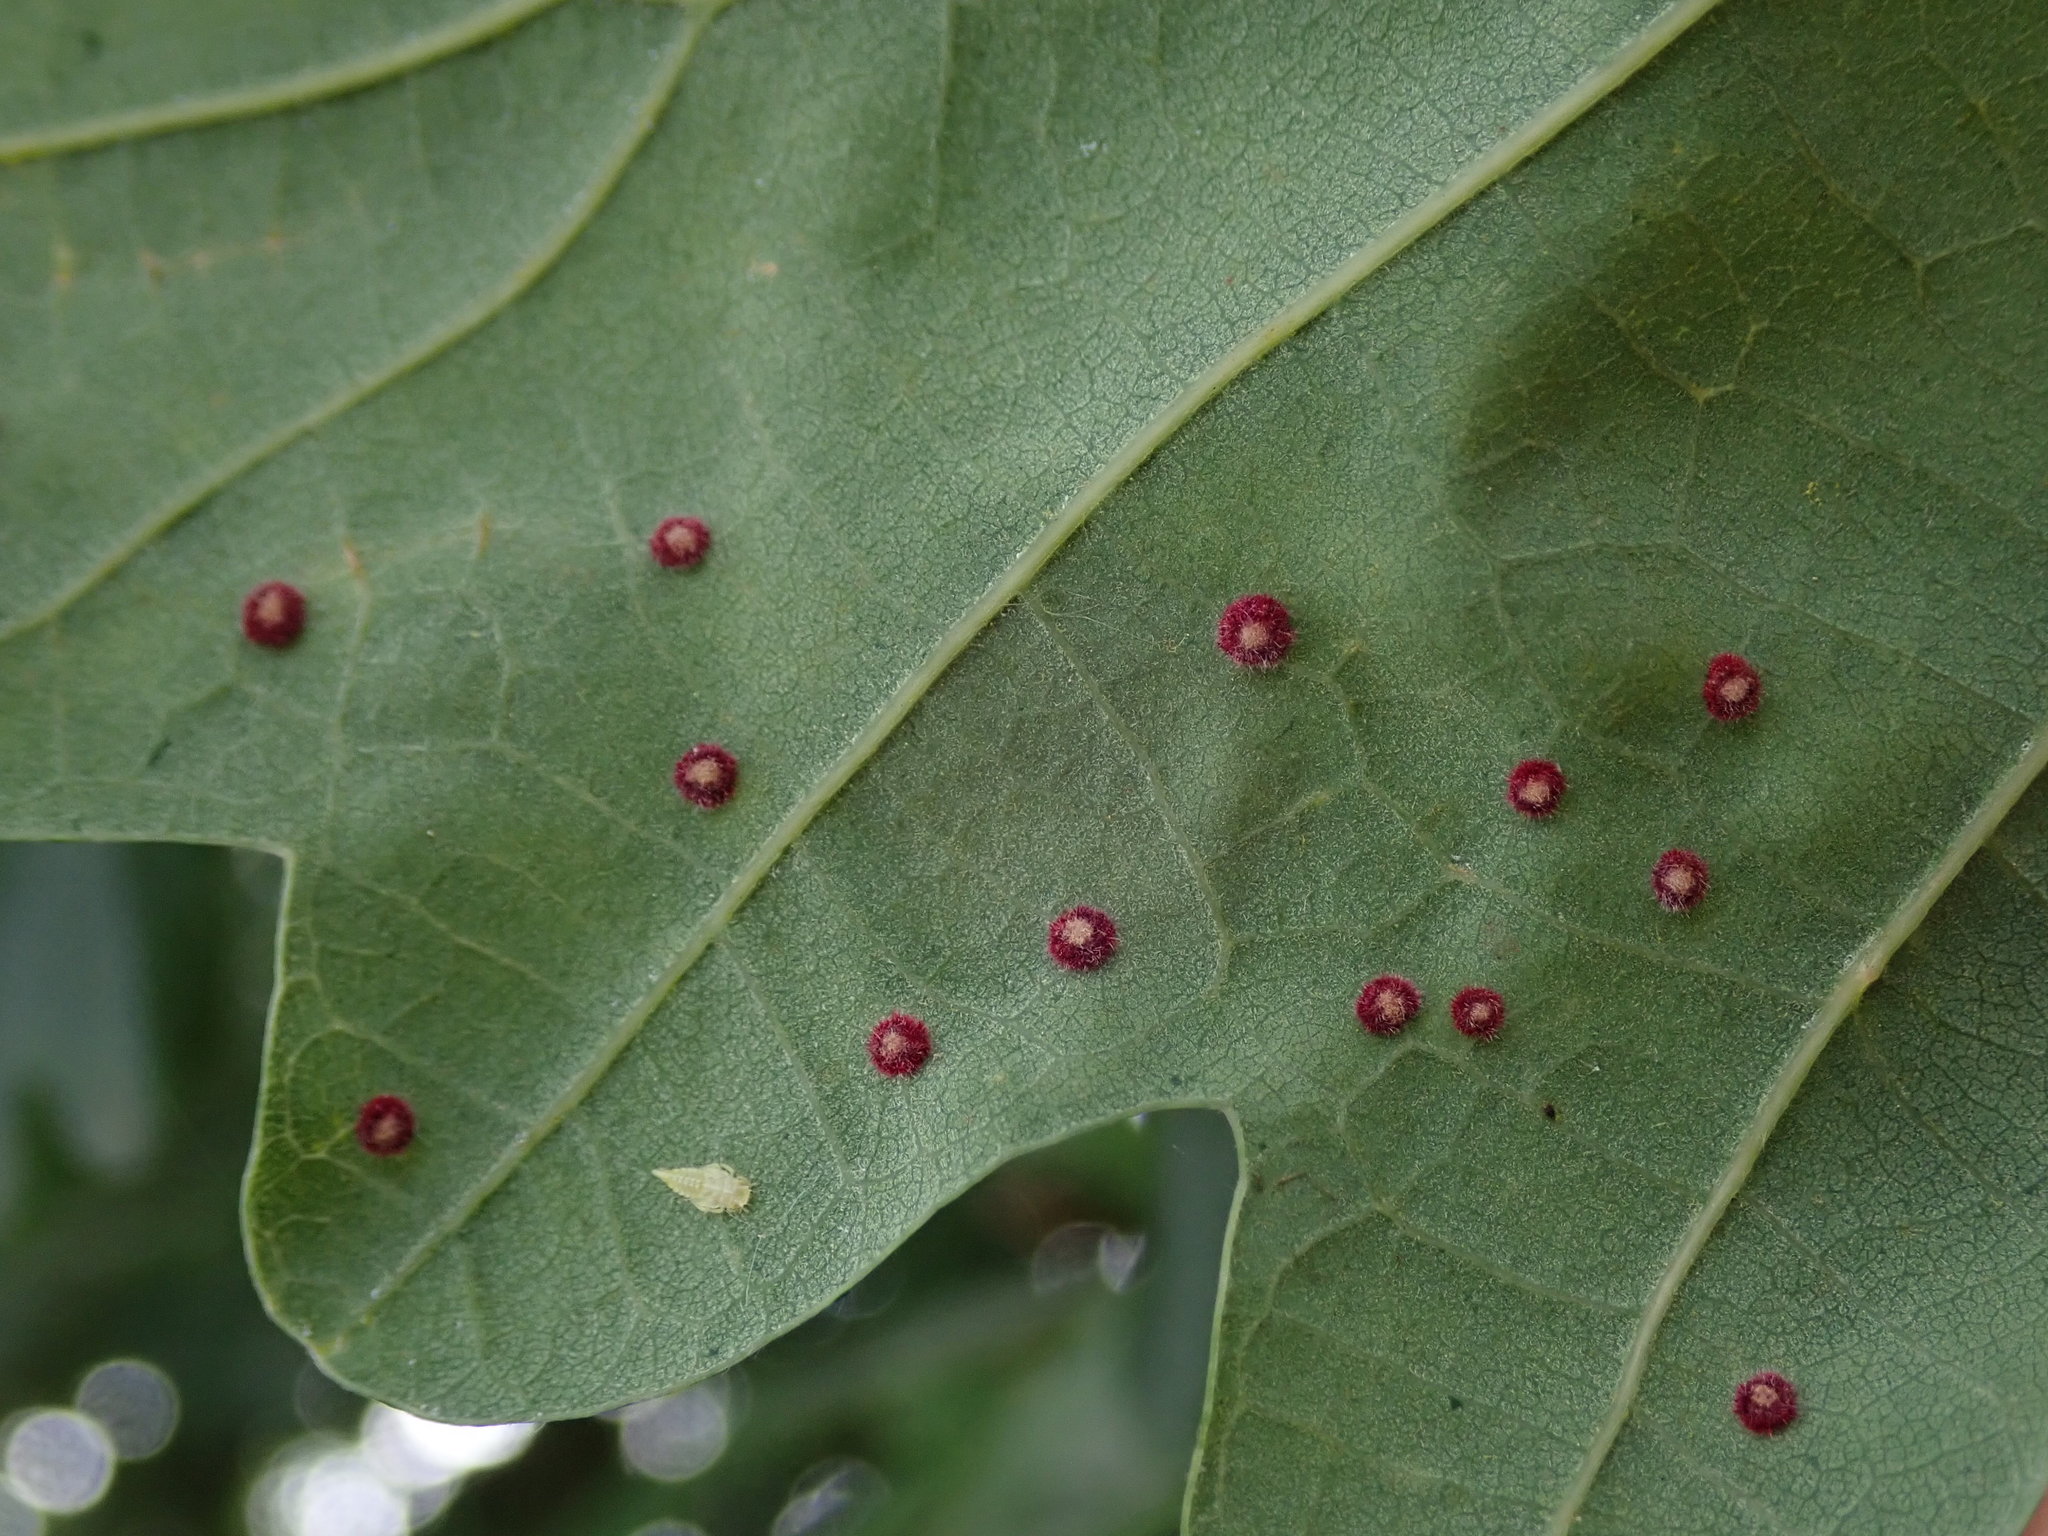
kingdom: Animalia
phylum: Arthropoda
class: Insecta
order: Hymenoptera
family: Cynipidae
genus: Neuroterus
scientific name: Neuroterus quercusbaccarum
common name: Common spangle gall
